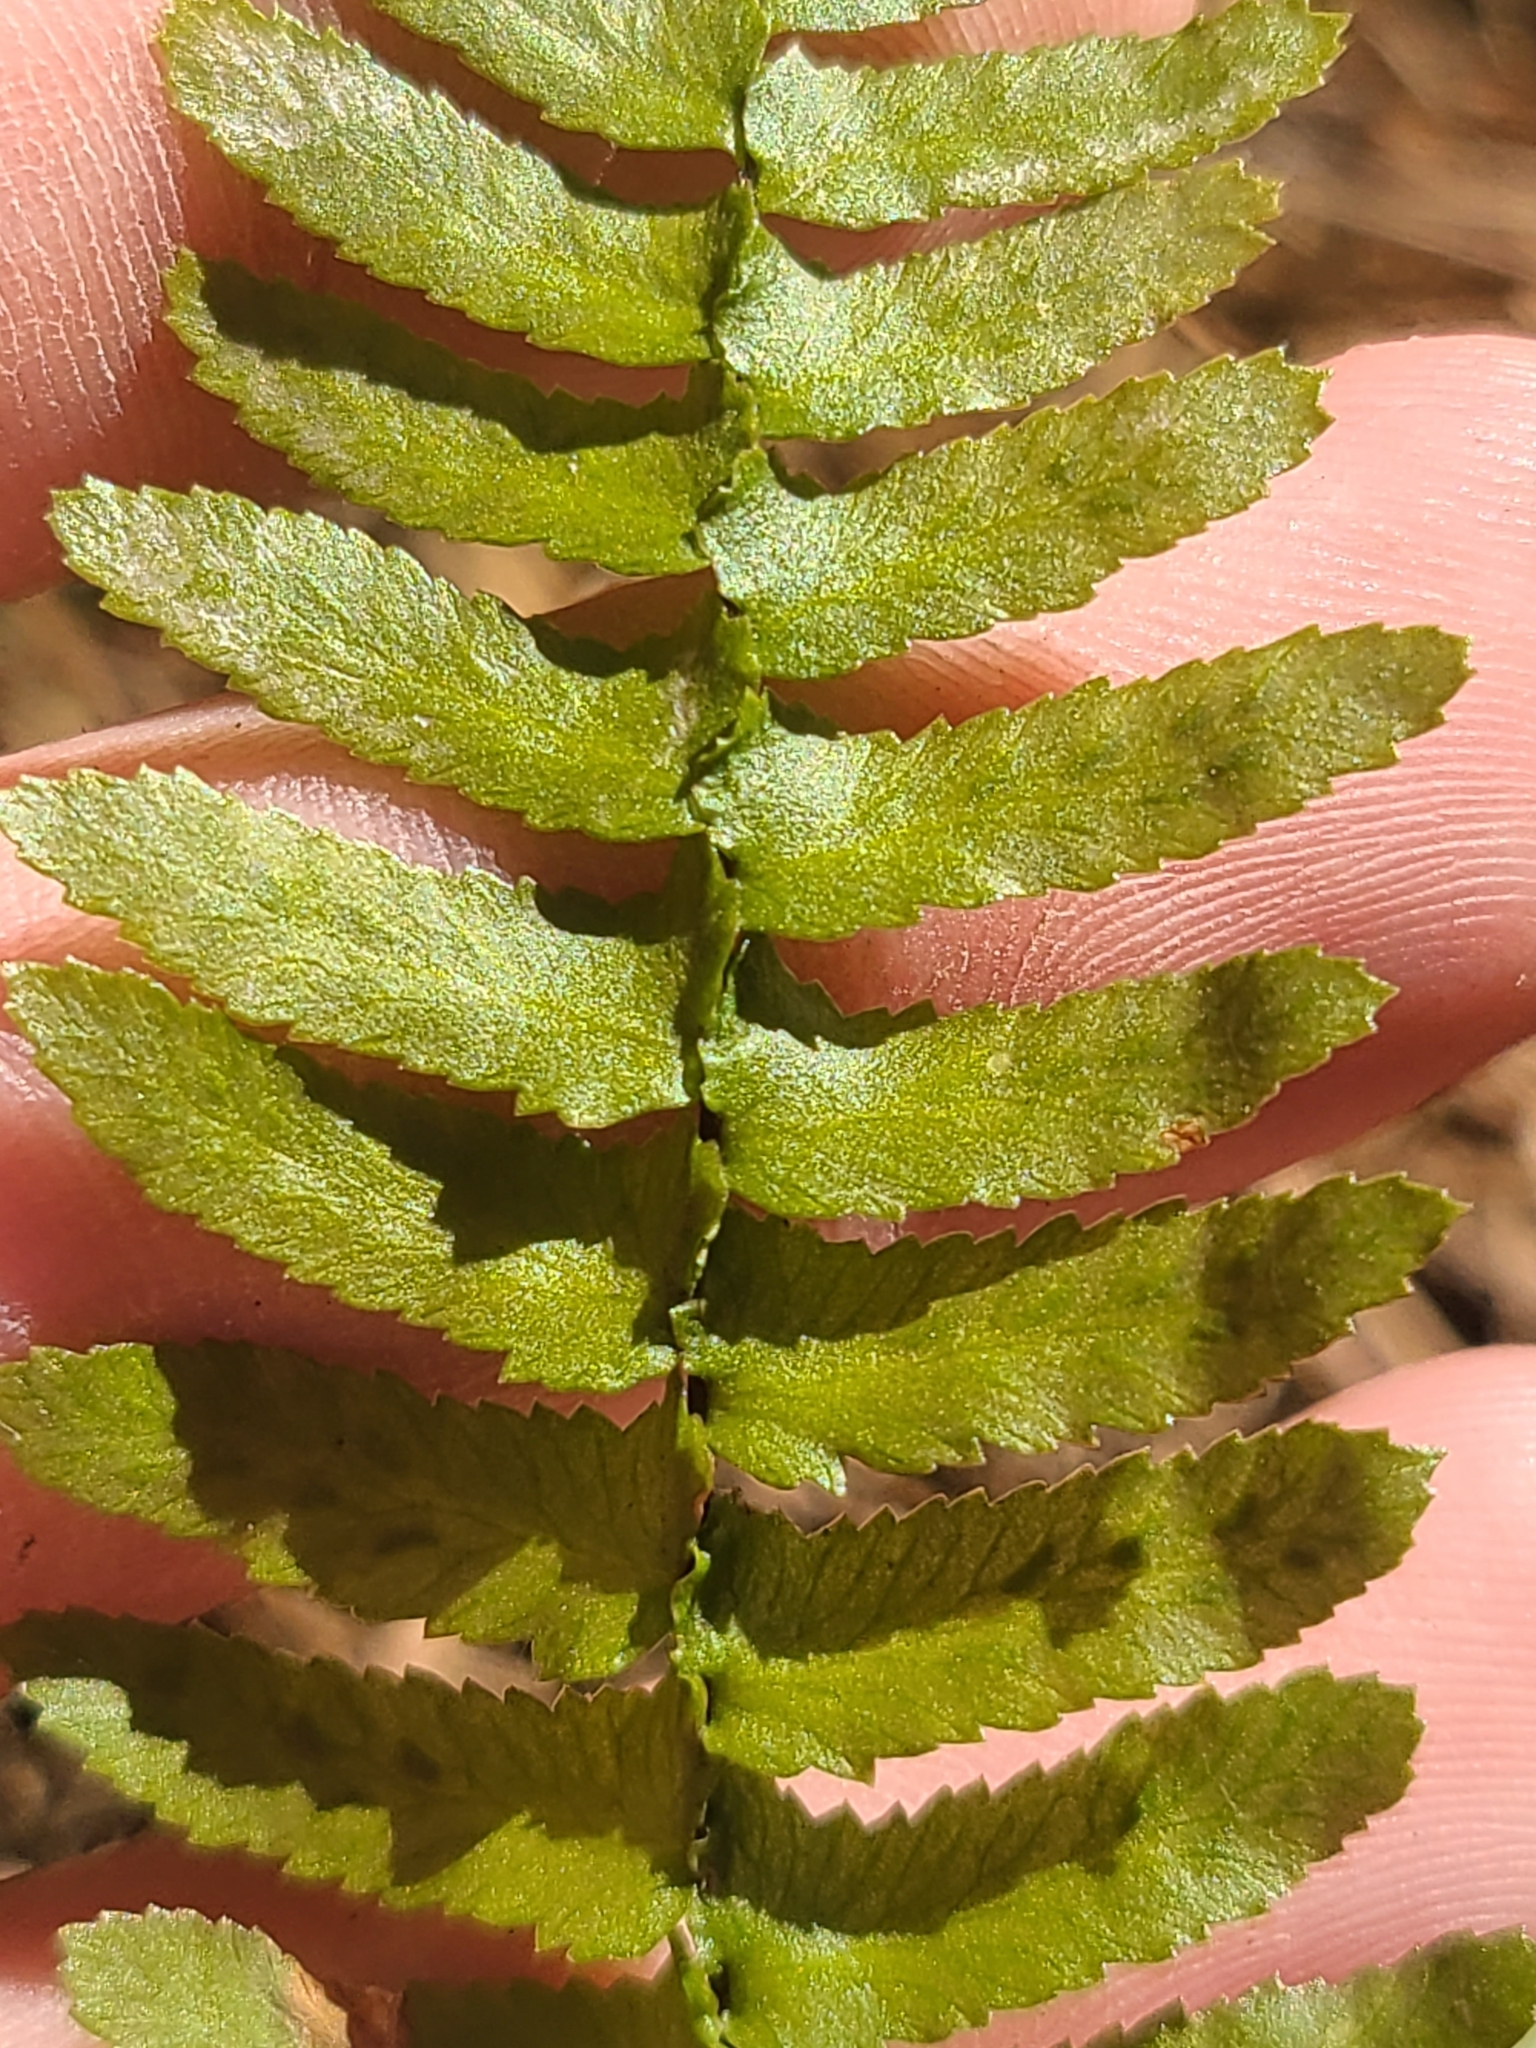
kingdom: Plantae
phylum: Tracheophyta
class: Polypodiopsida
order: Polypodiales
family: Aspleniaceae
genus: Asplenium
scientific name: Asplenium platyneuron
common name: Ebony spleenwort
